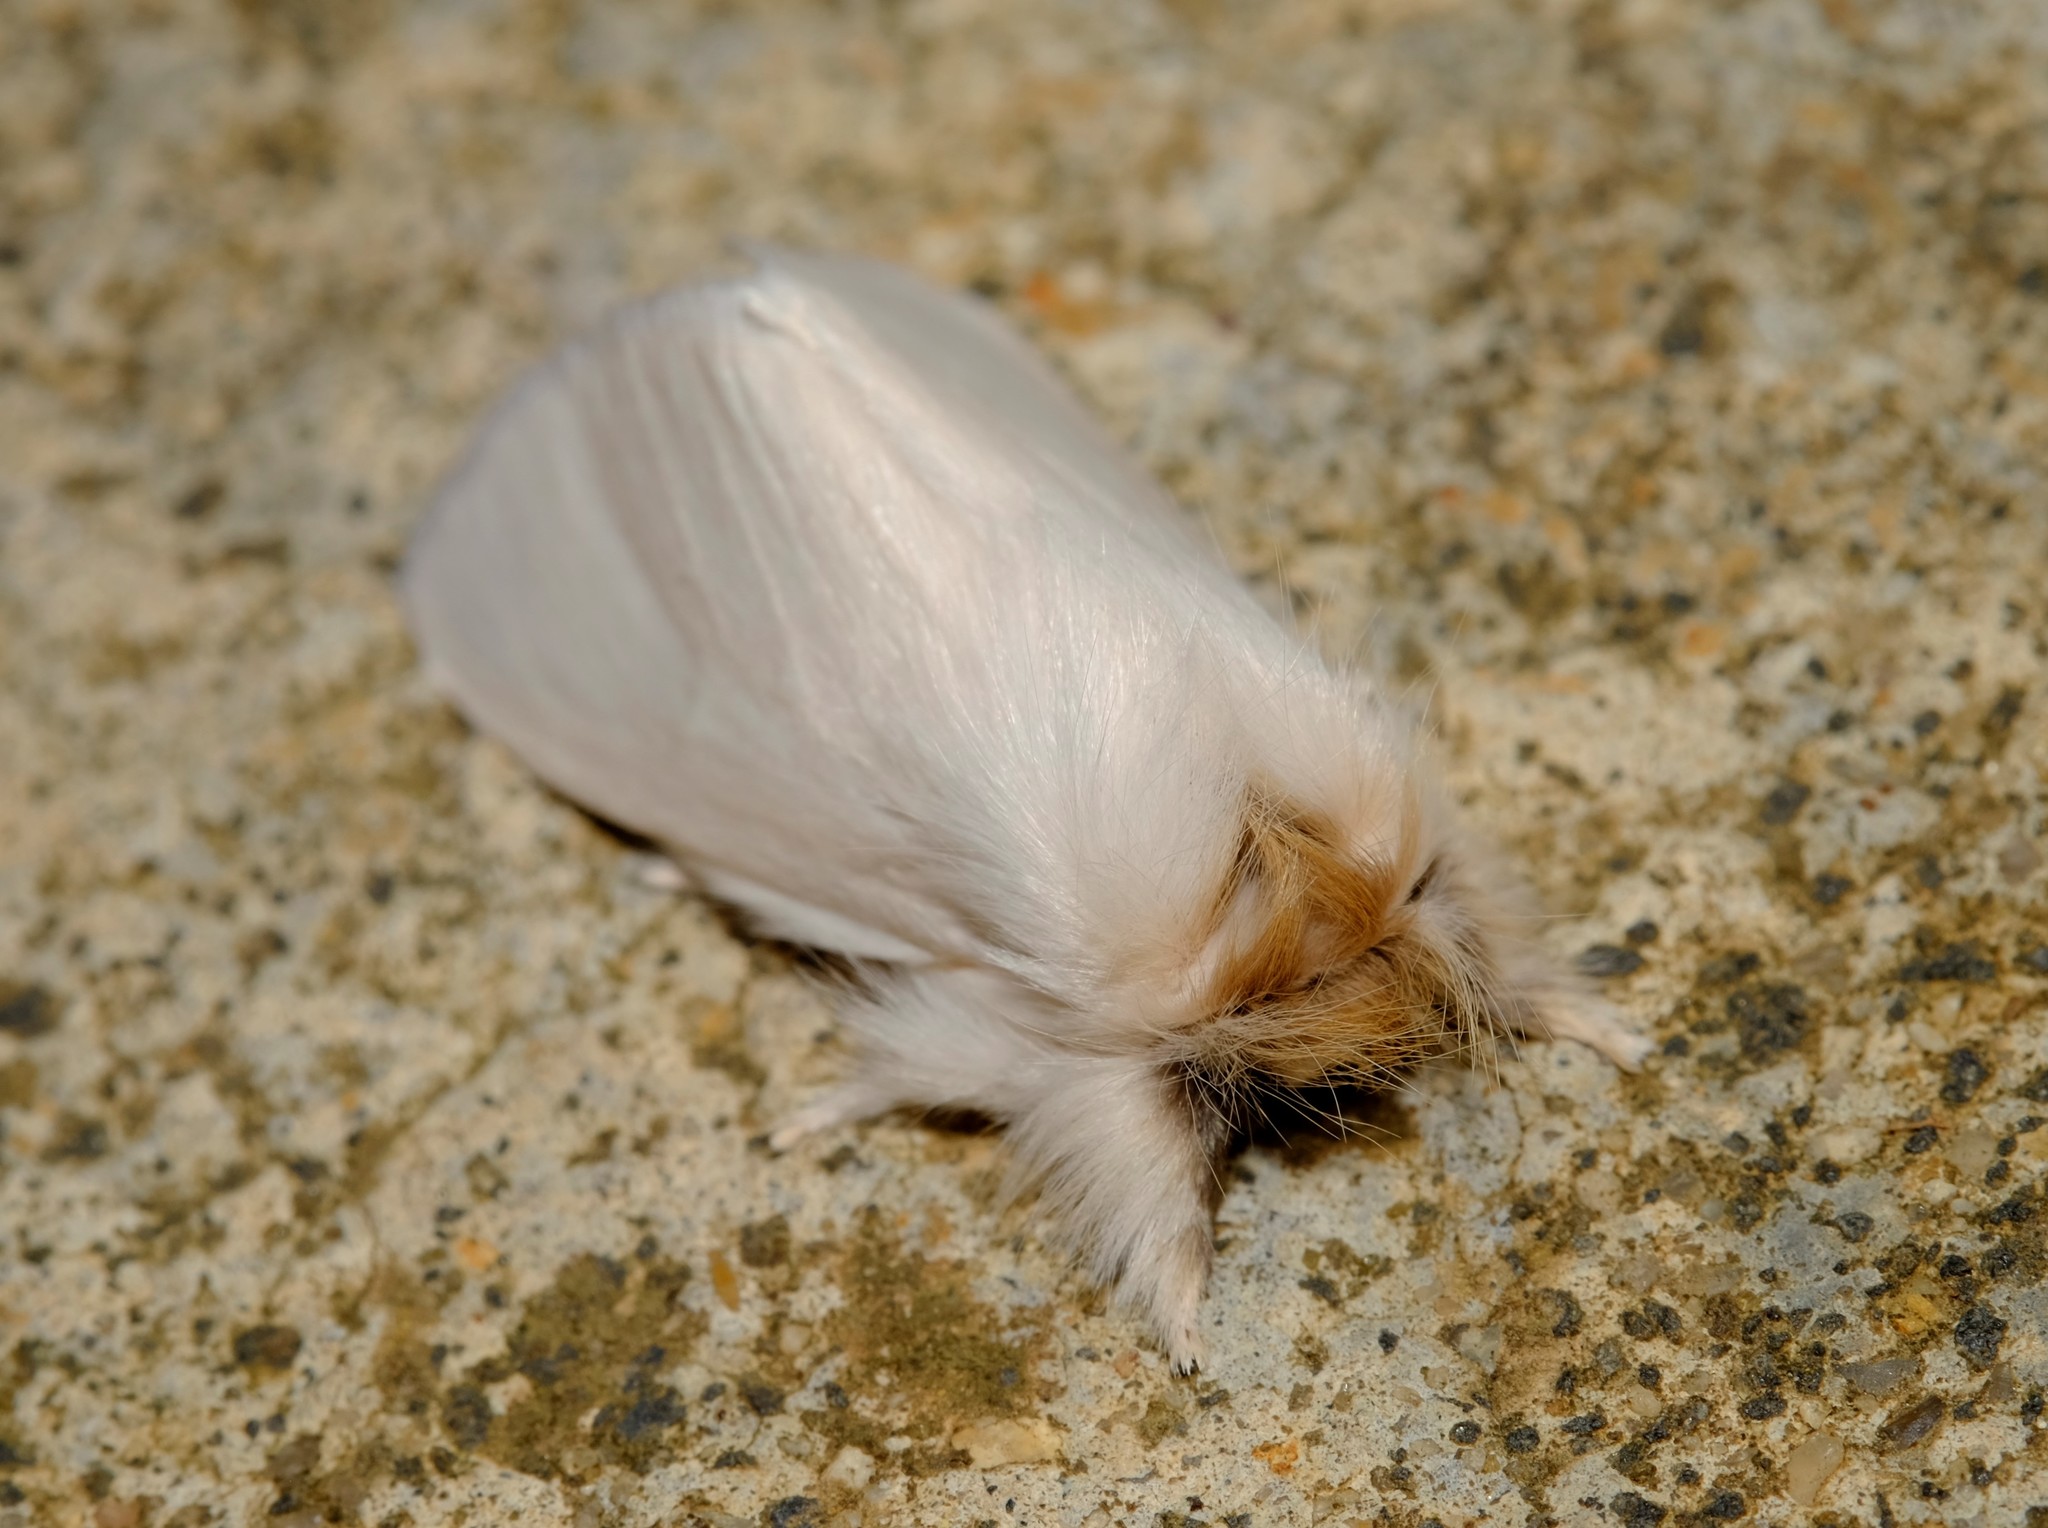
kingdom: Animalia
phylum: Arthropoda
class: Insecta
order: Lepidoptera
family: Notodontidae
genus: Trichiocercus
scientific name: Trichiocercus
